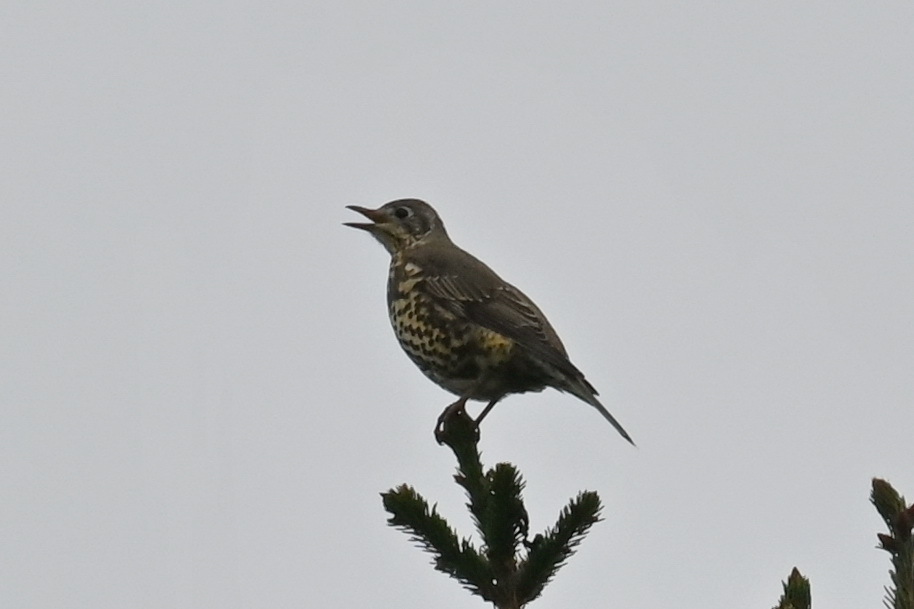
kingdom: Animalia
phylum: Chordata
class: Aves
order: Passeriformes
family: Turdidae
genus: Turdus
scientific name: Turdus viscivorus
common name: Mistle thrush
